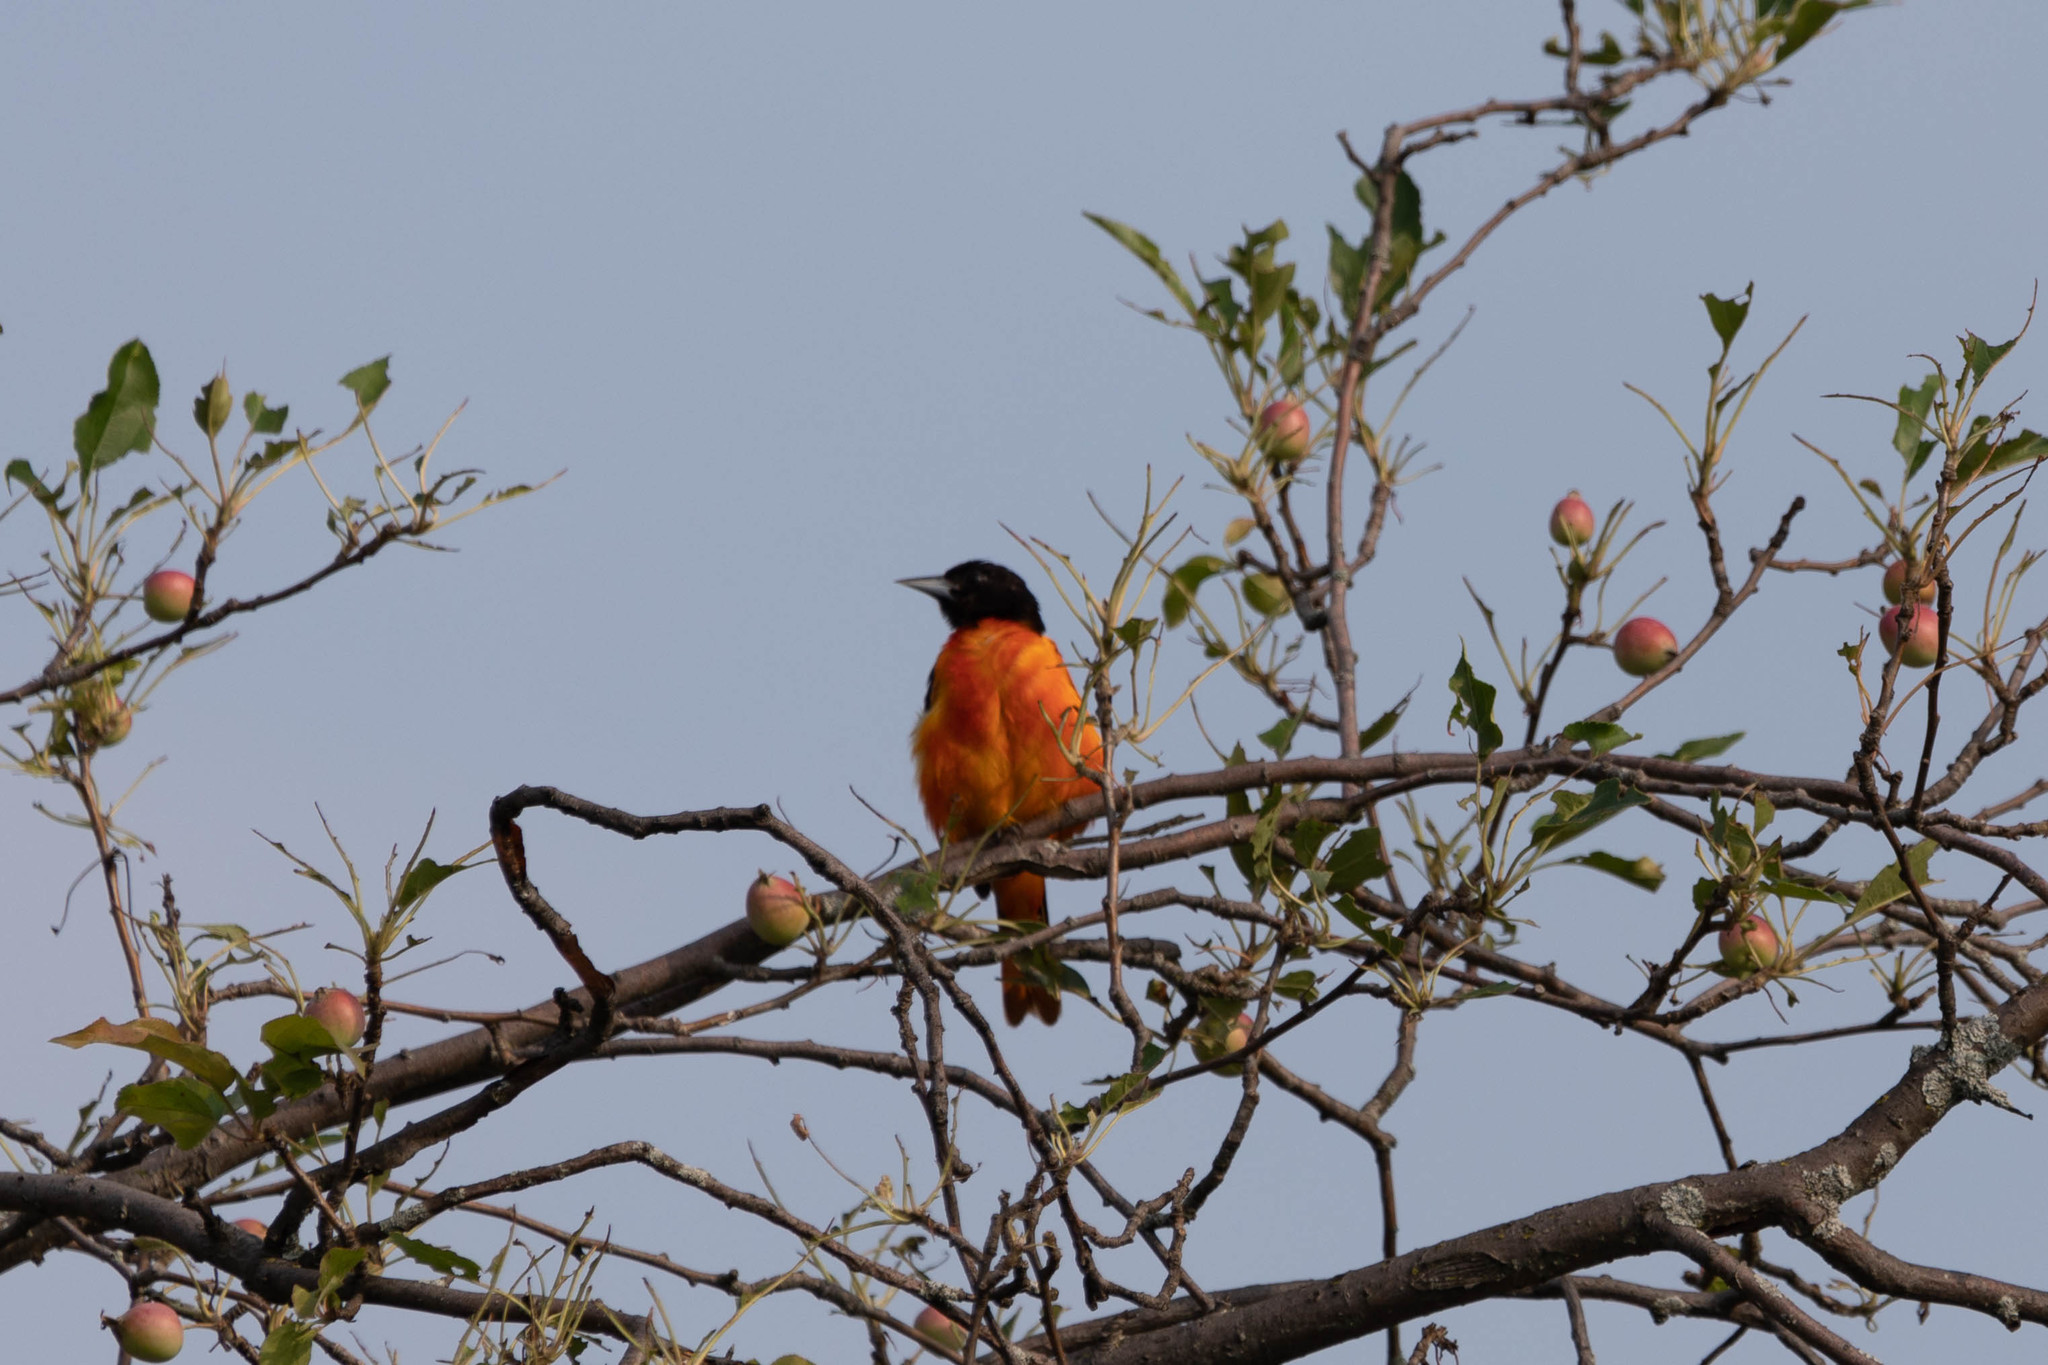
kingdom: Animalia
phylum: Chordata
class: Aves
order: Passeriformes
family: Icteridae
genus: Icterus
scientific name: Icterus galbula
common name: Baltimore oriole
